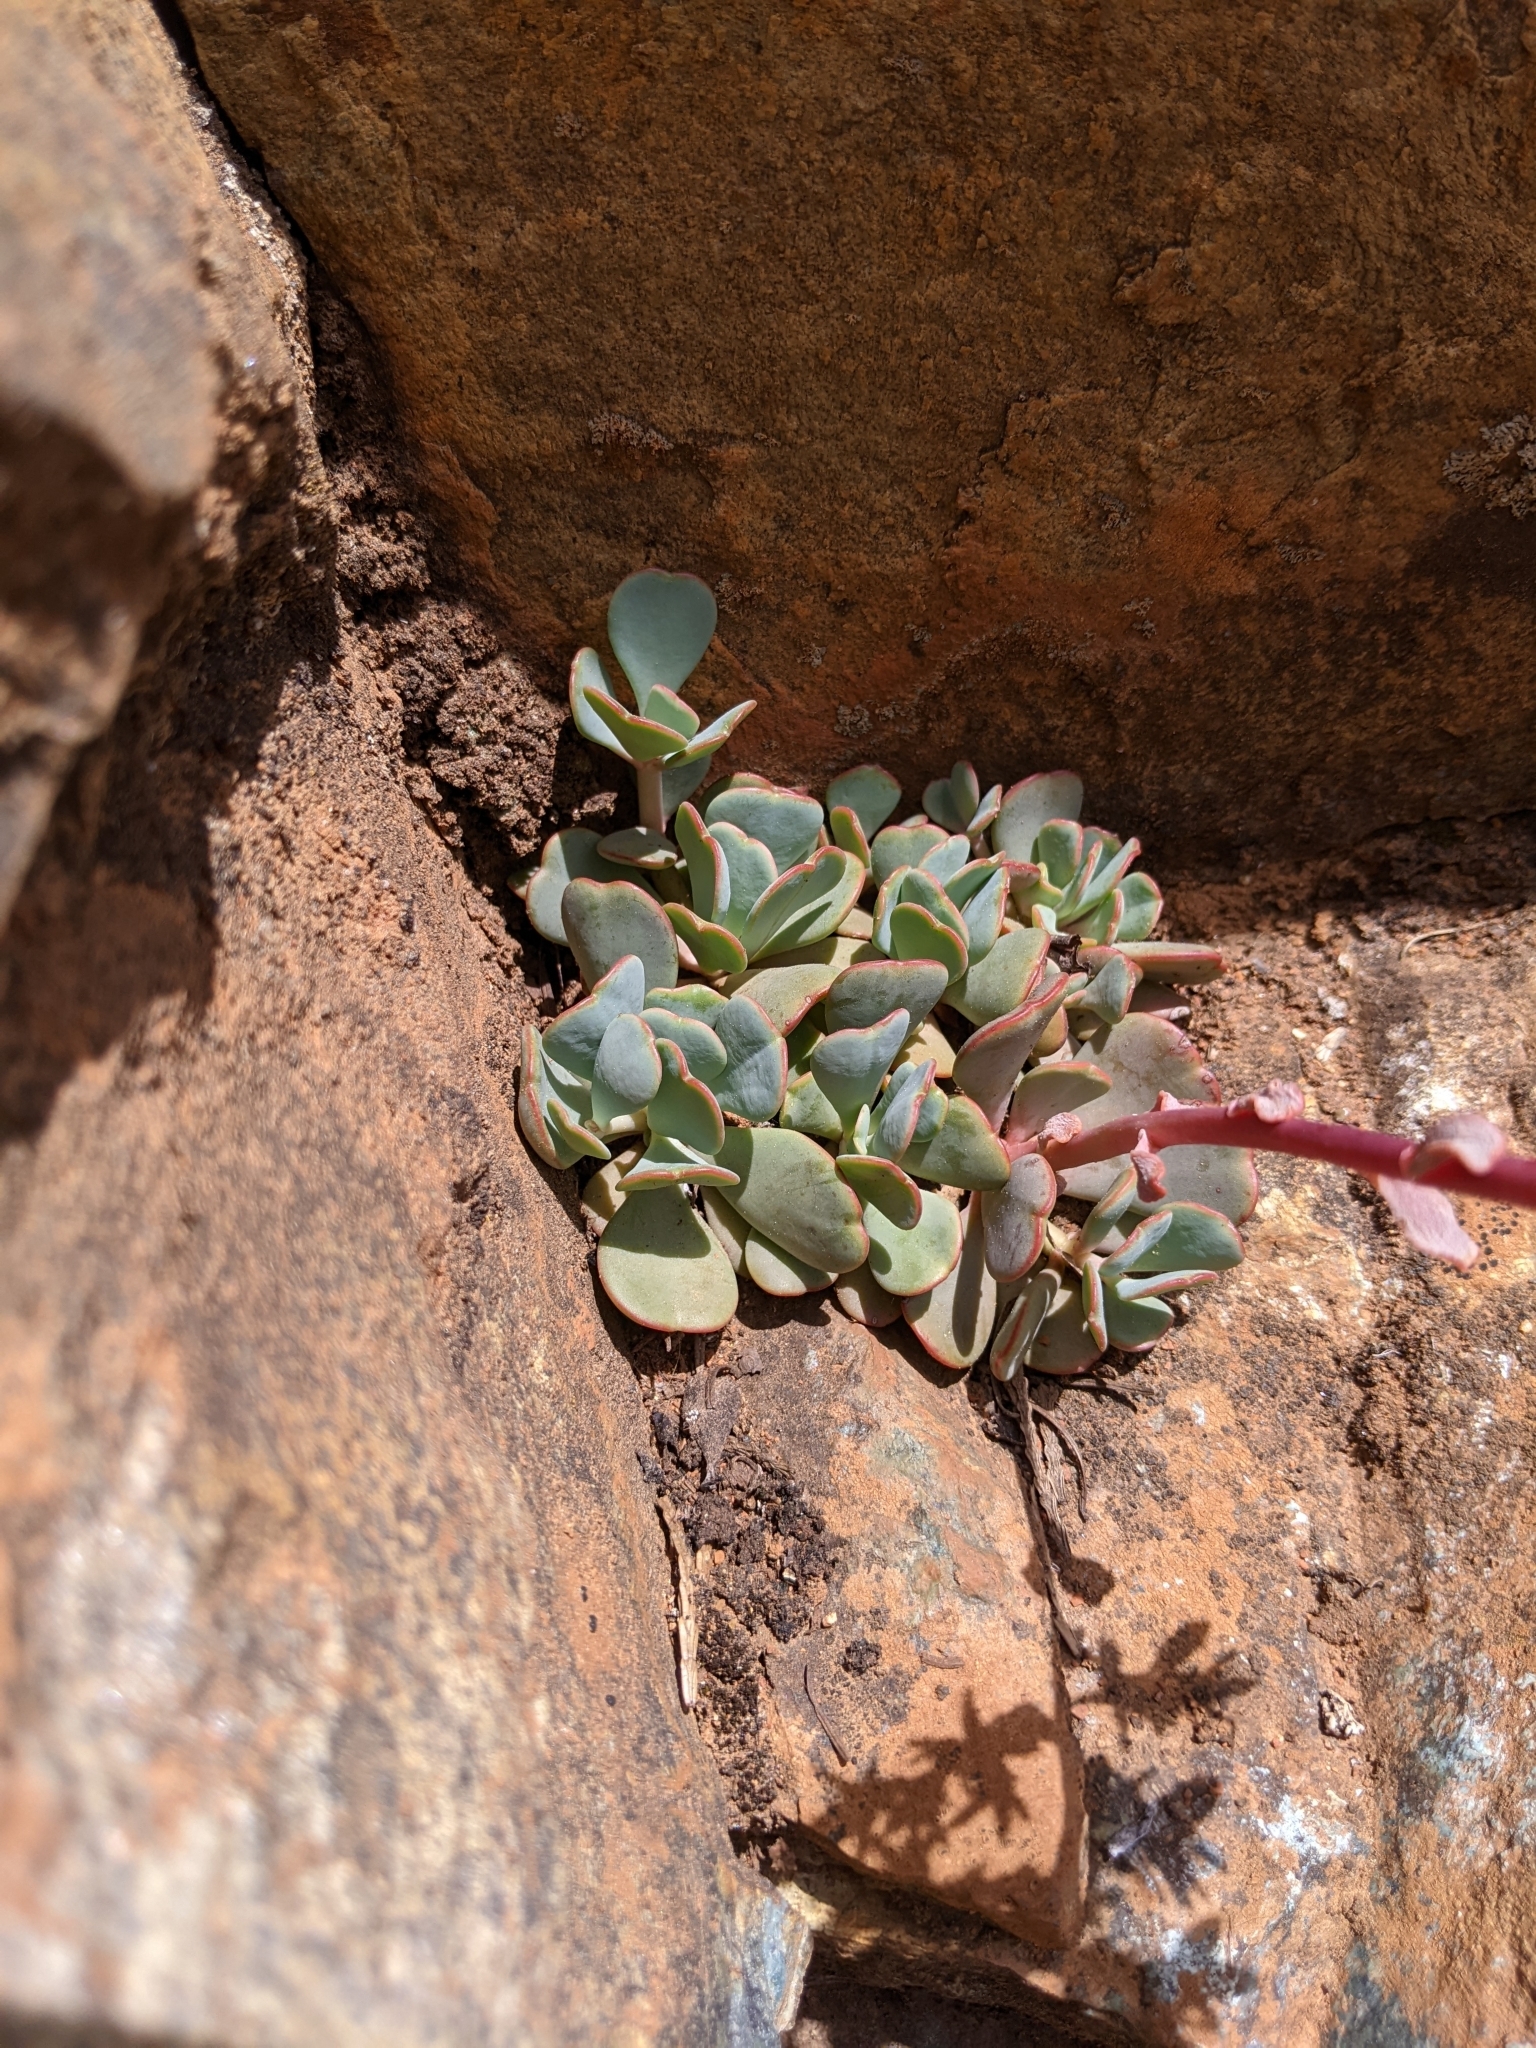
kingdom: Plantae
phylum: Tracheophyta
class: Magnoliopsida
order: Saxifragales
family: Crassulaceae
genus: Sedum
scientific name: Sedum obtusatum
